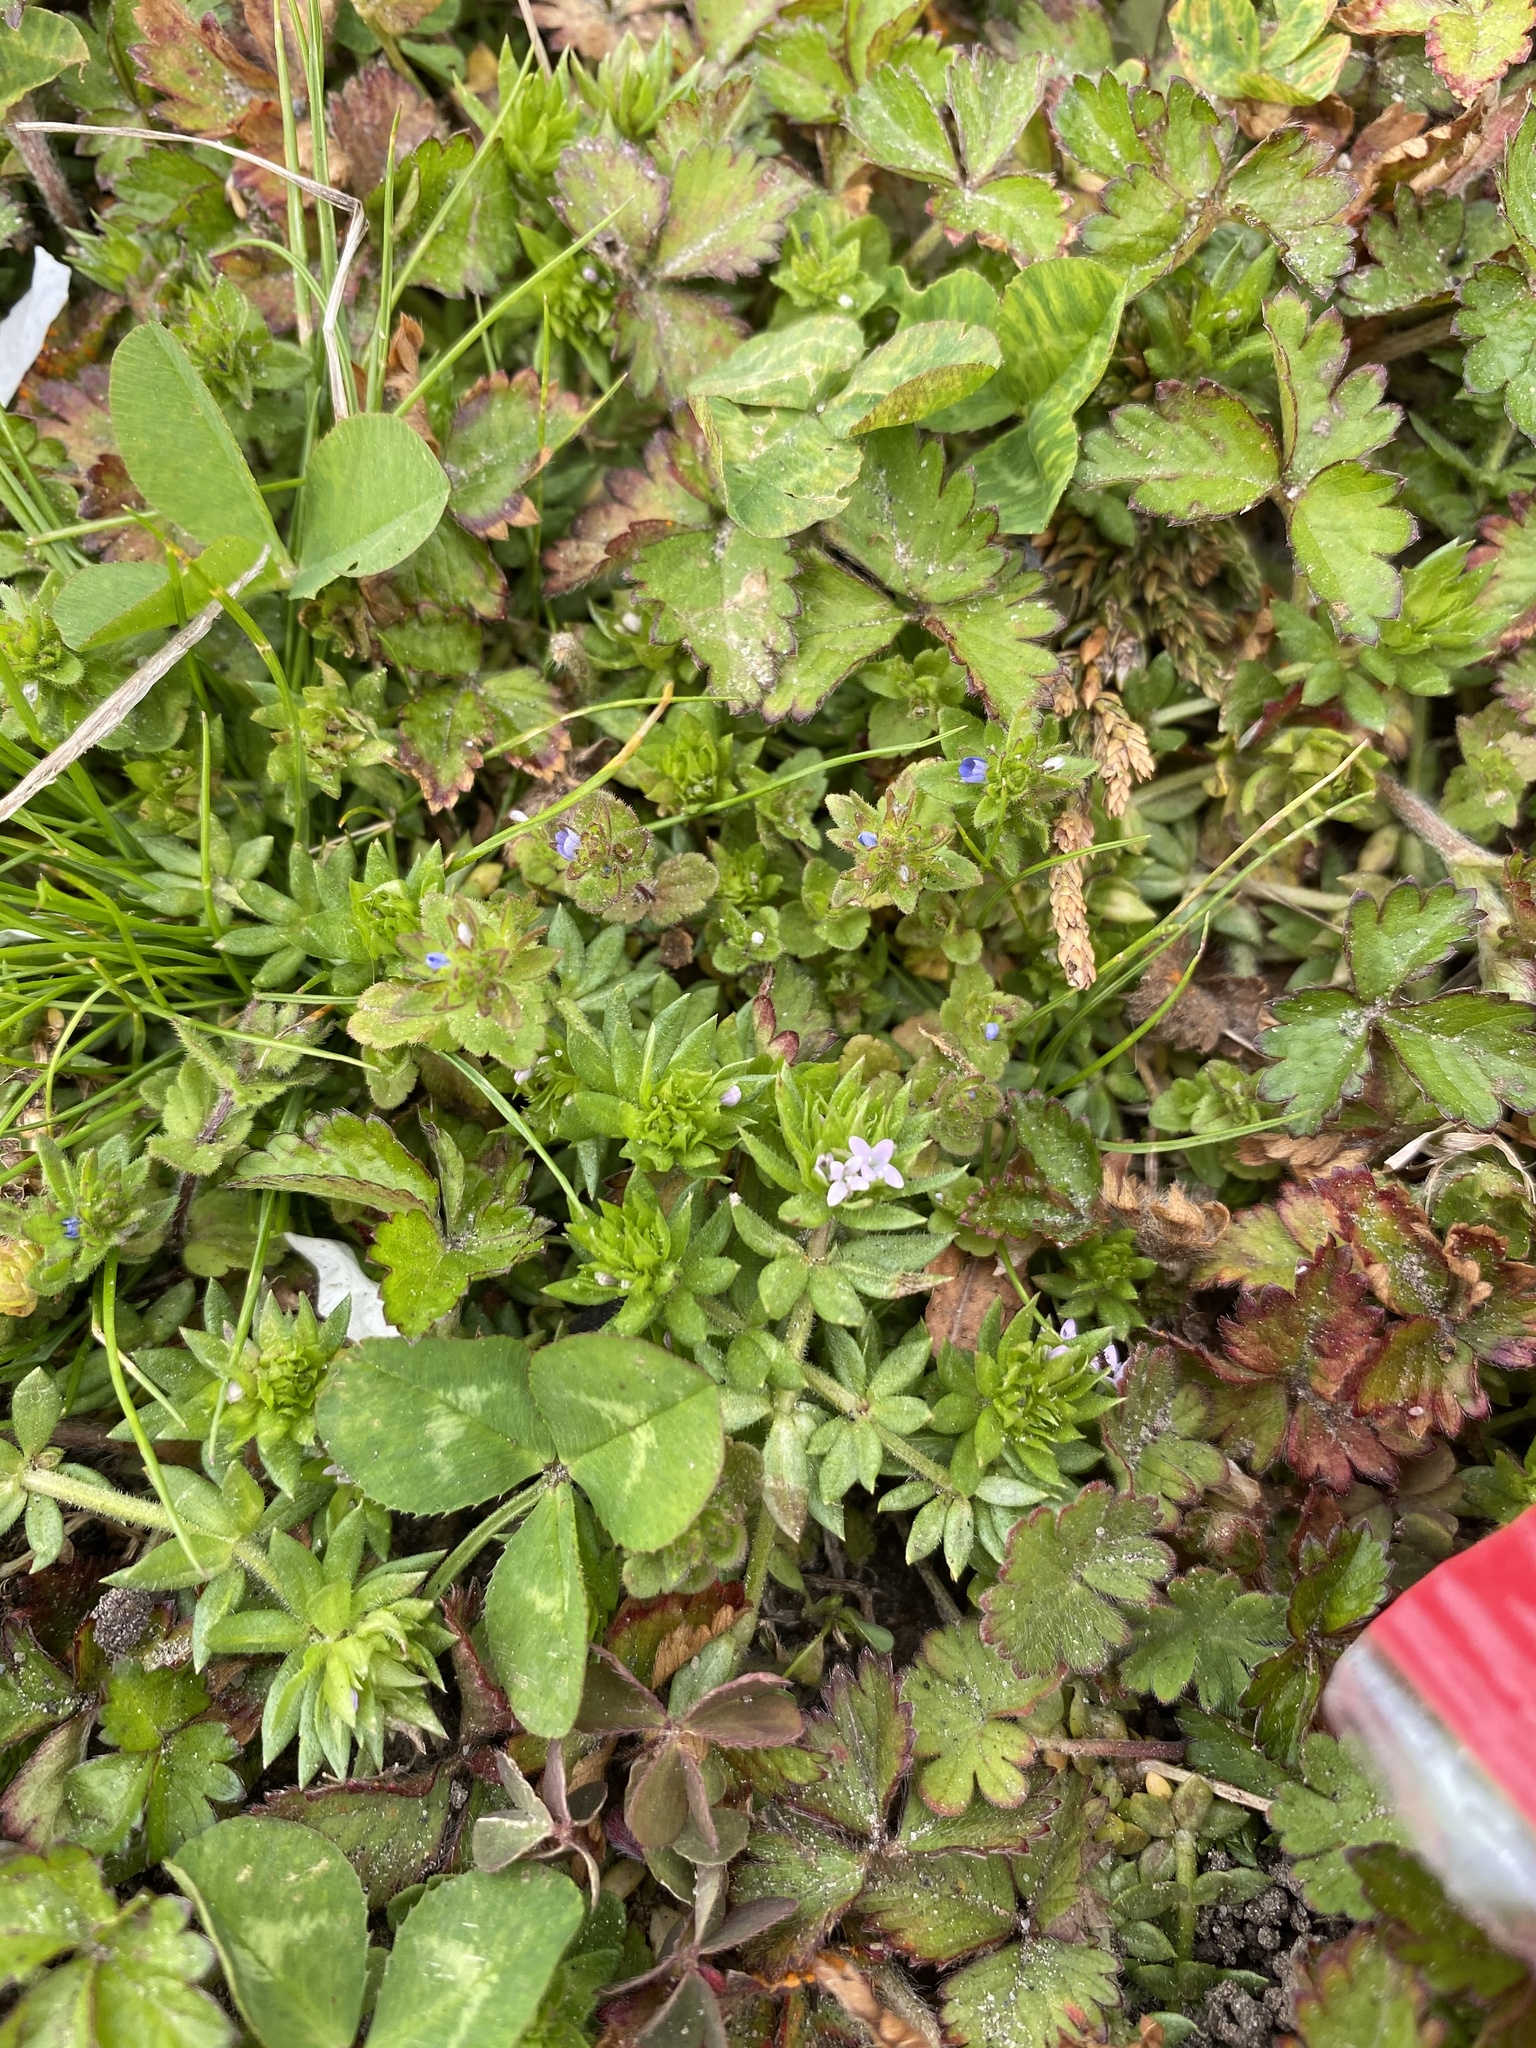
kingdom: Plantae
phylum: Tracheophyta
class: Magnoliopsida
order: Gentianales
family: Rubiaceae
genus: Sherardia
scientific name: Sherardia arvensis
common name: Field madder
